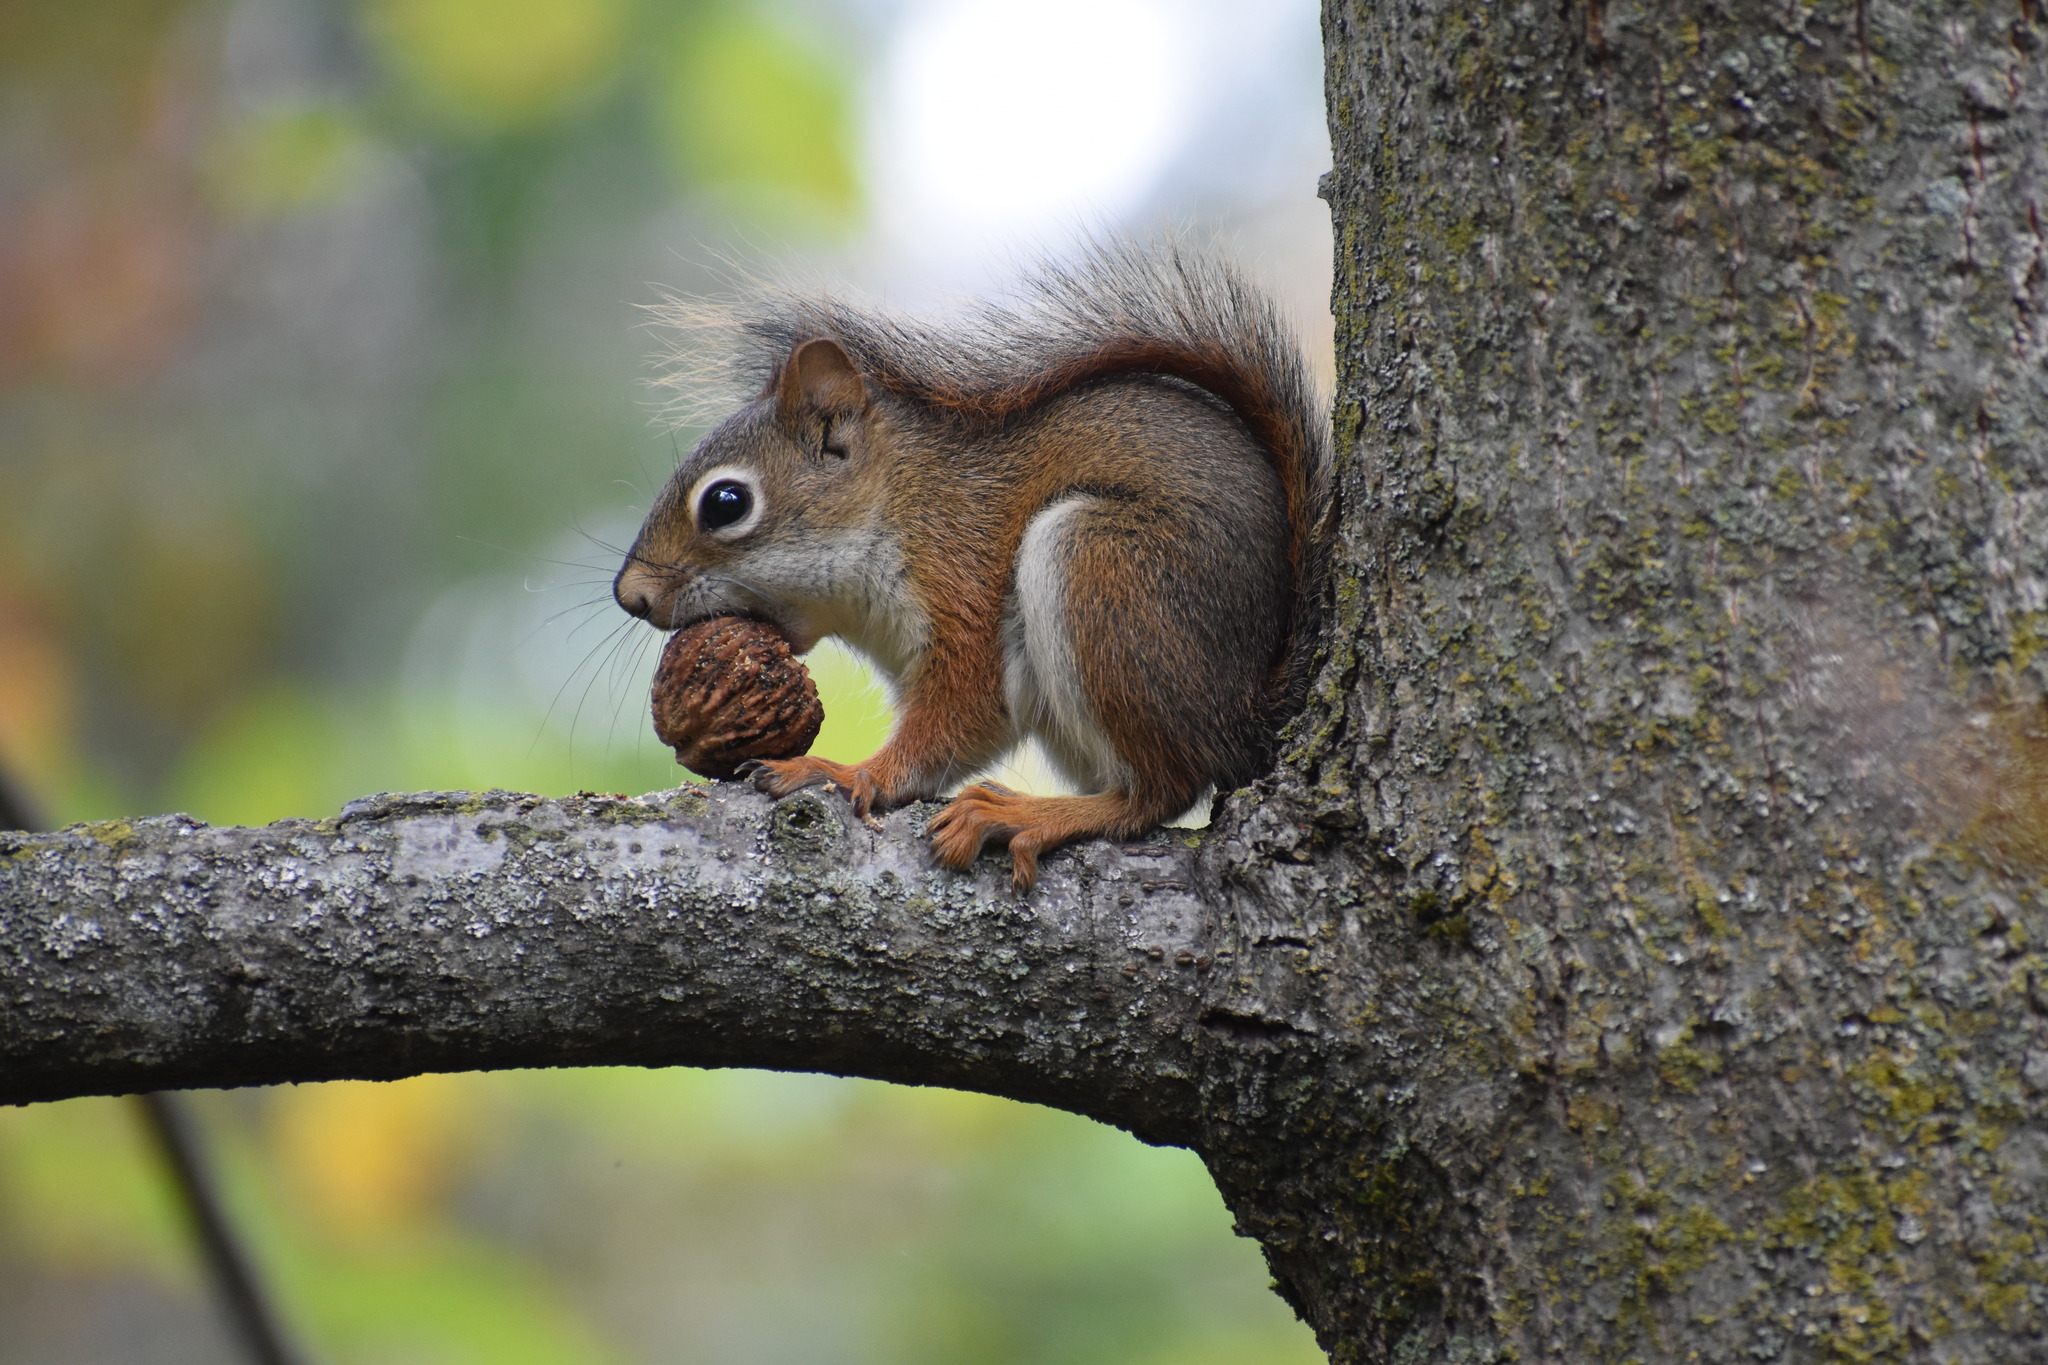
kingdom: Animalia
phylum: Chordata
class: Mammalia
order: Rodentia
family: Sciuridae
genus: Tamiasciurus
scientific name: Tamiasciurus hudsonicus
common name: Red squirrel
